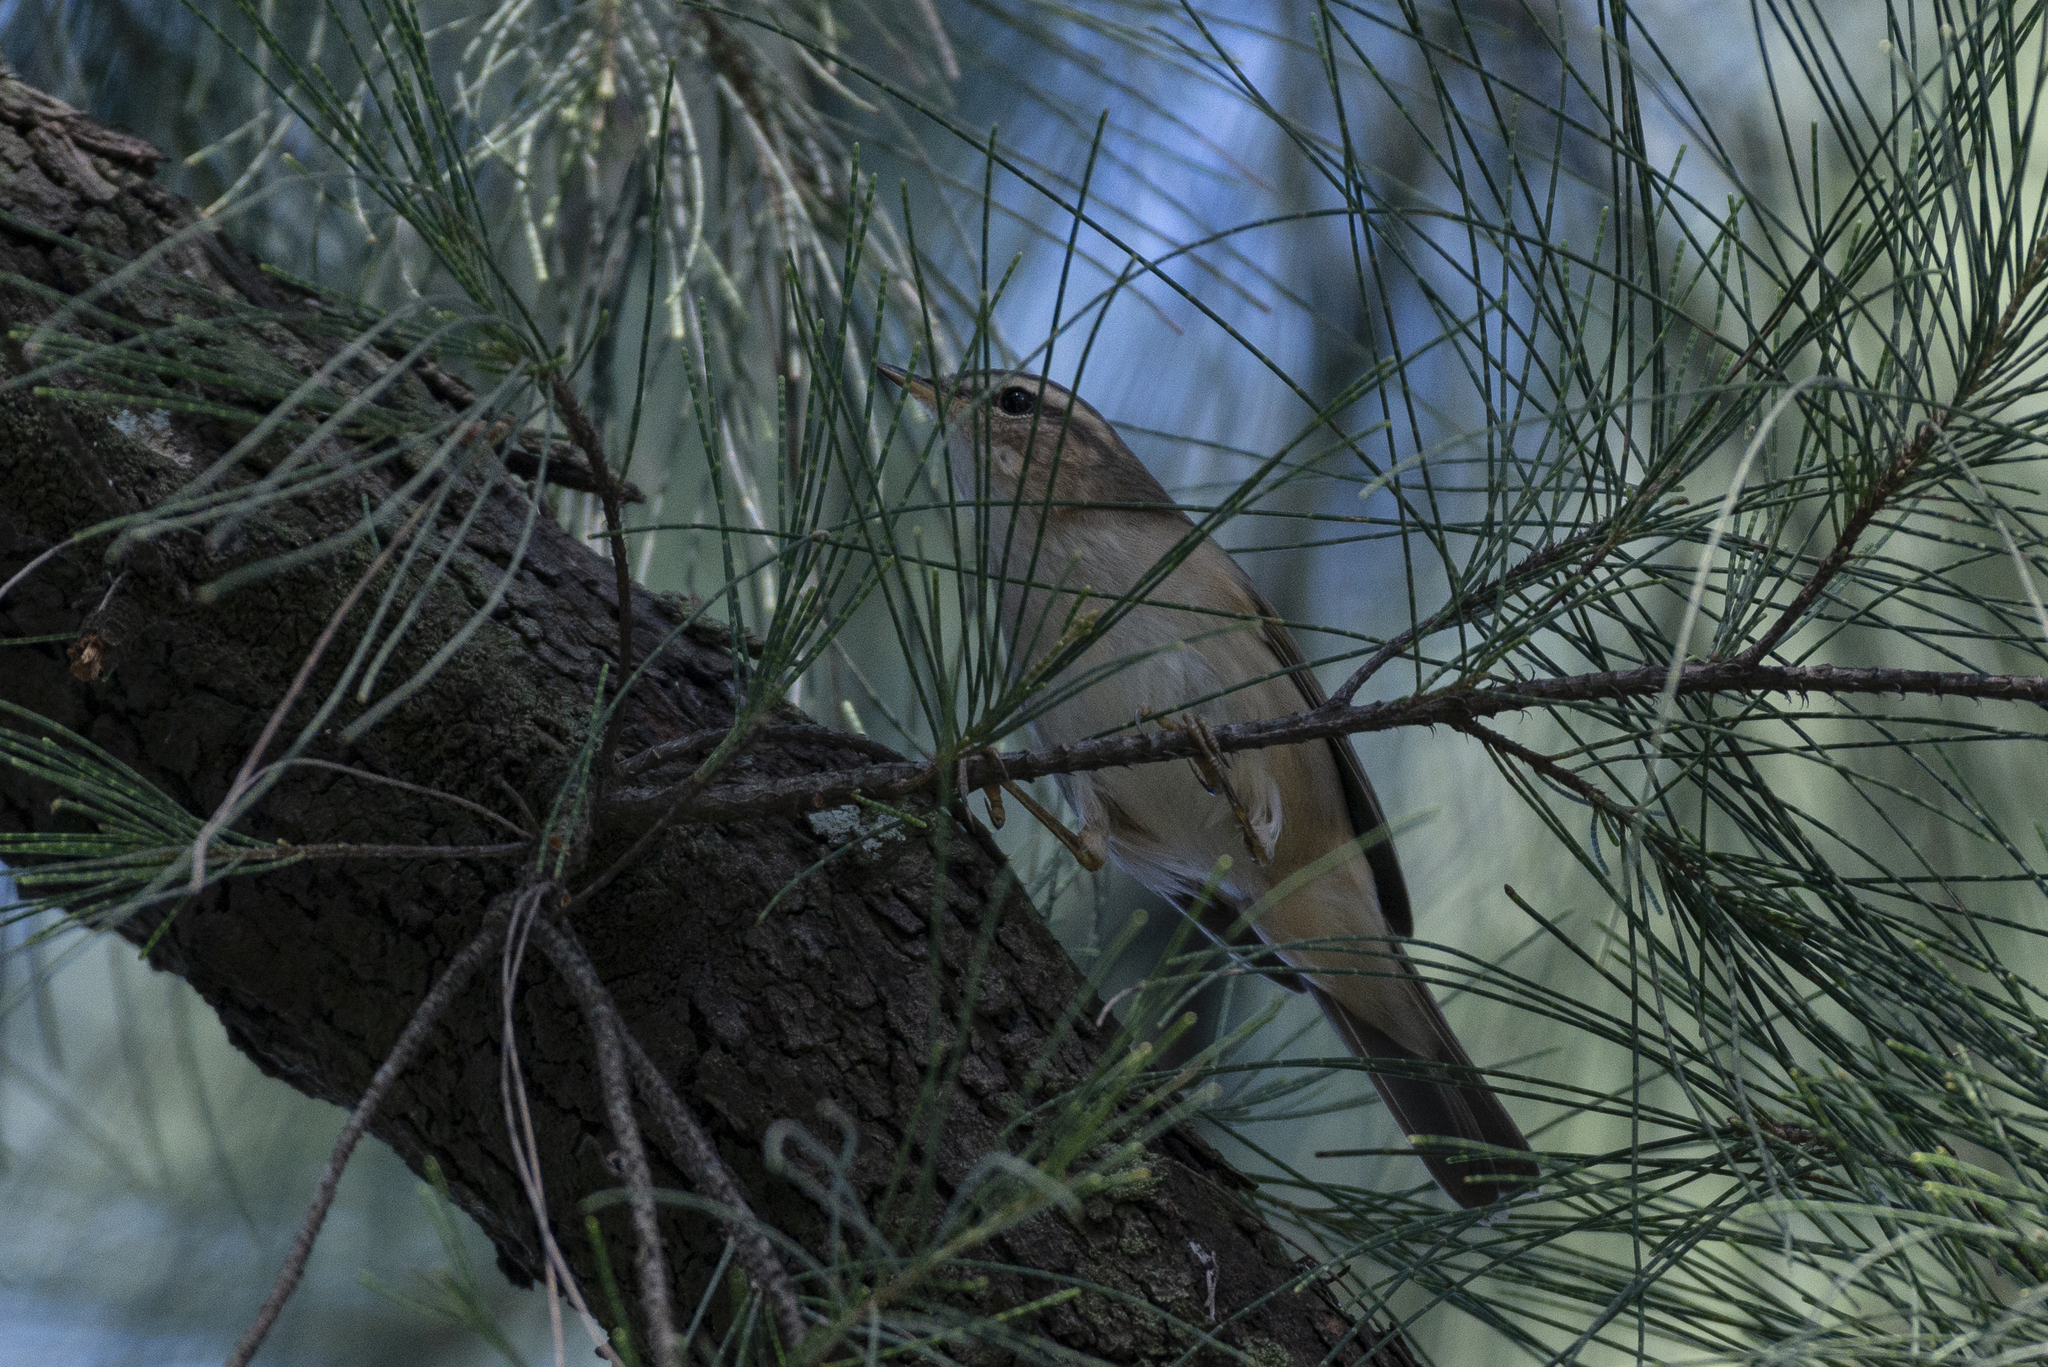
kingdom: Animalia
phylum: Chordata
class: Aves
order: Passeriformes
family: Phylloscopidae
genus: Phylloscopus
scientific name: Phylloscopus fuscatus
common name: Dusky warbler
